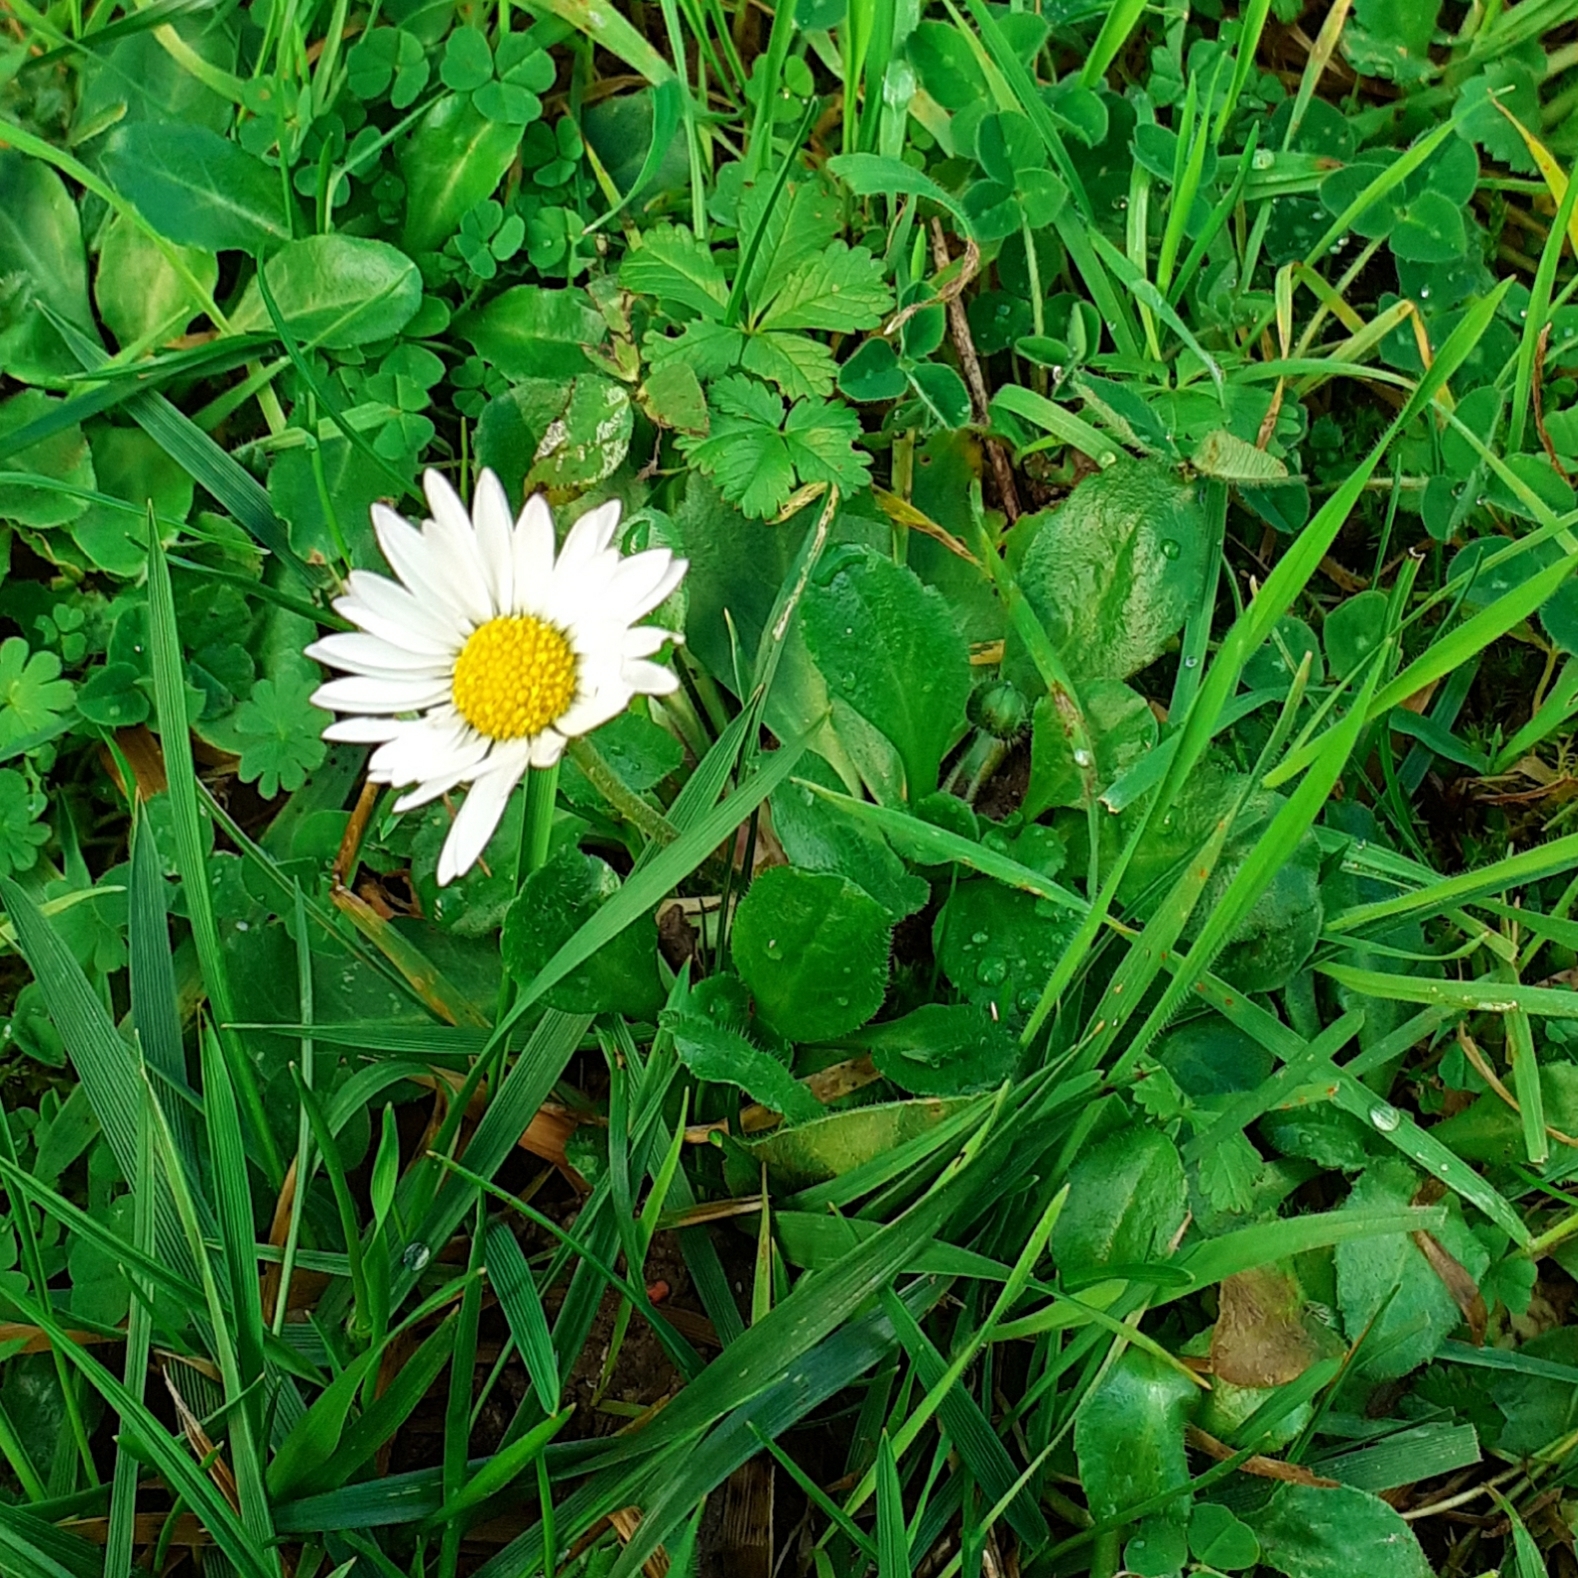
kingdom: Plantae
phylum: Tracheophyta
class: Magnoliopsida
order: Asterales
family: Asteraceae
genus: Bellis
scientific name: Bellis perennis
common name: Lawndaisy
